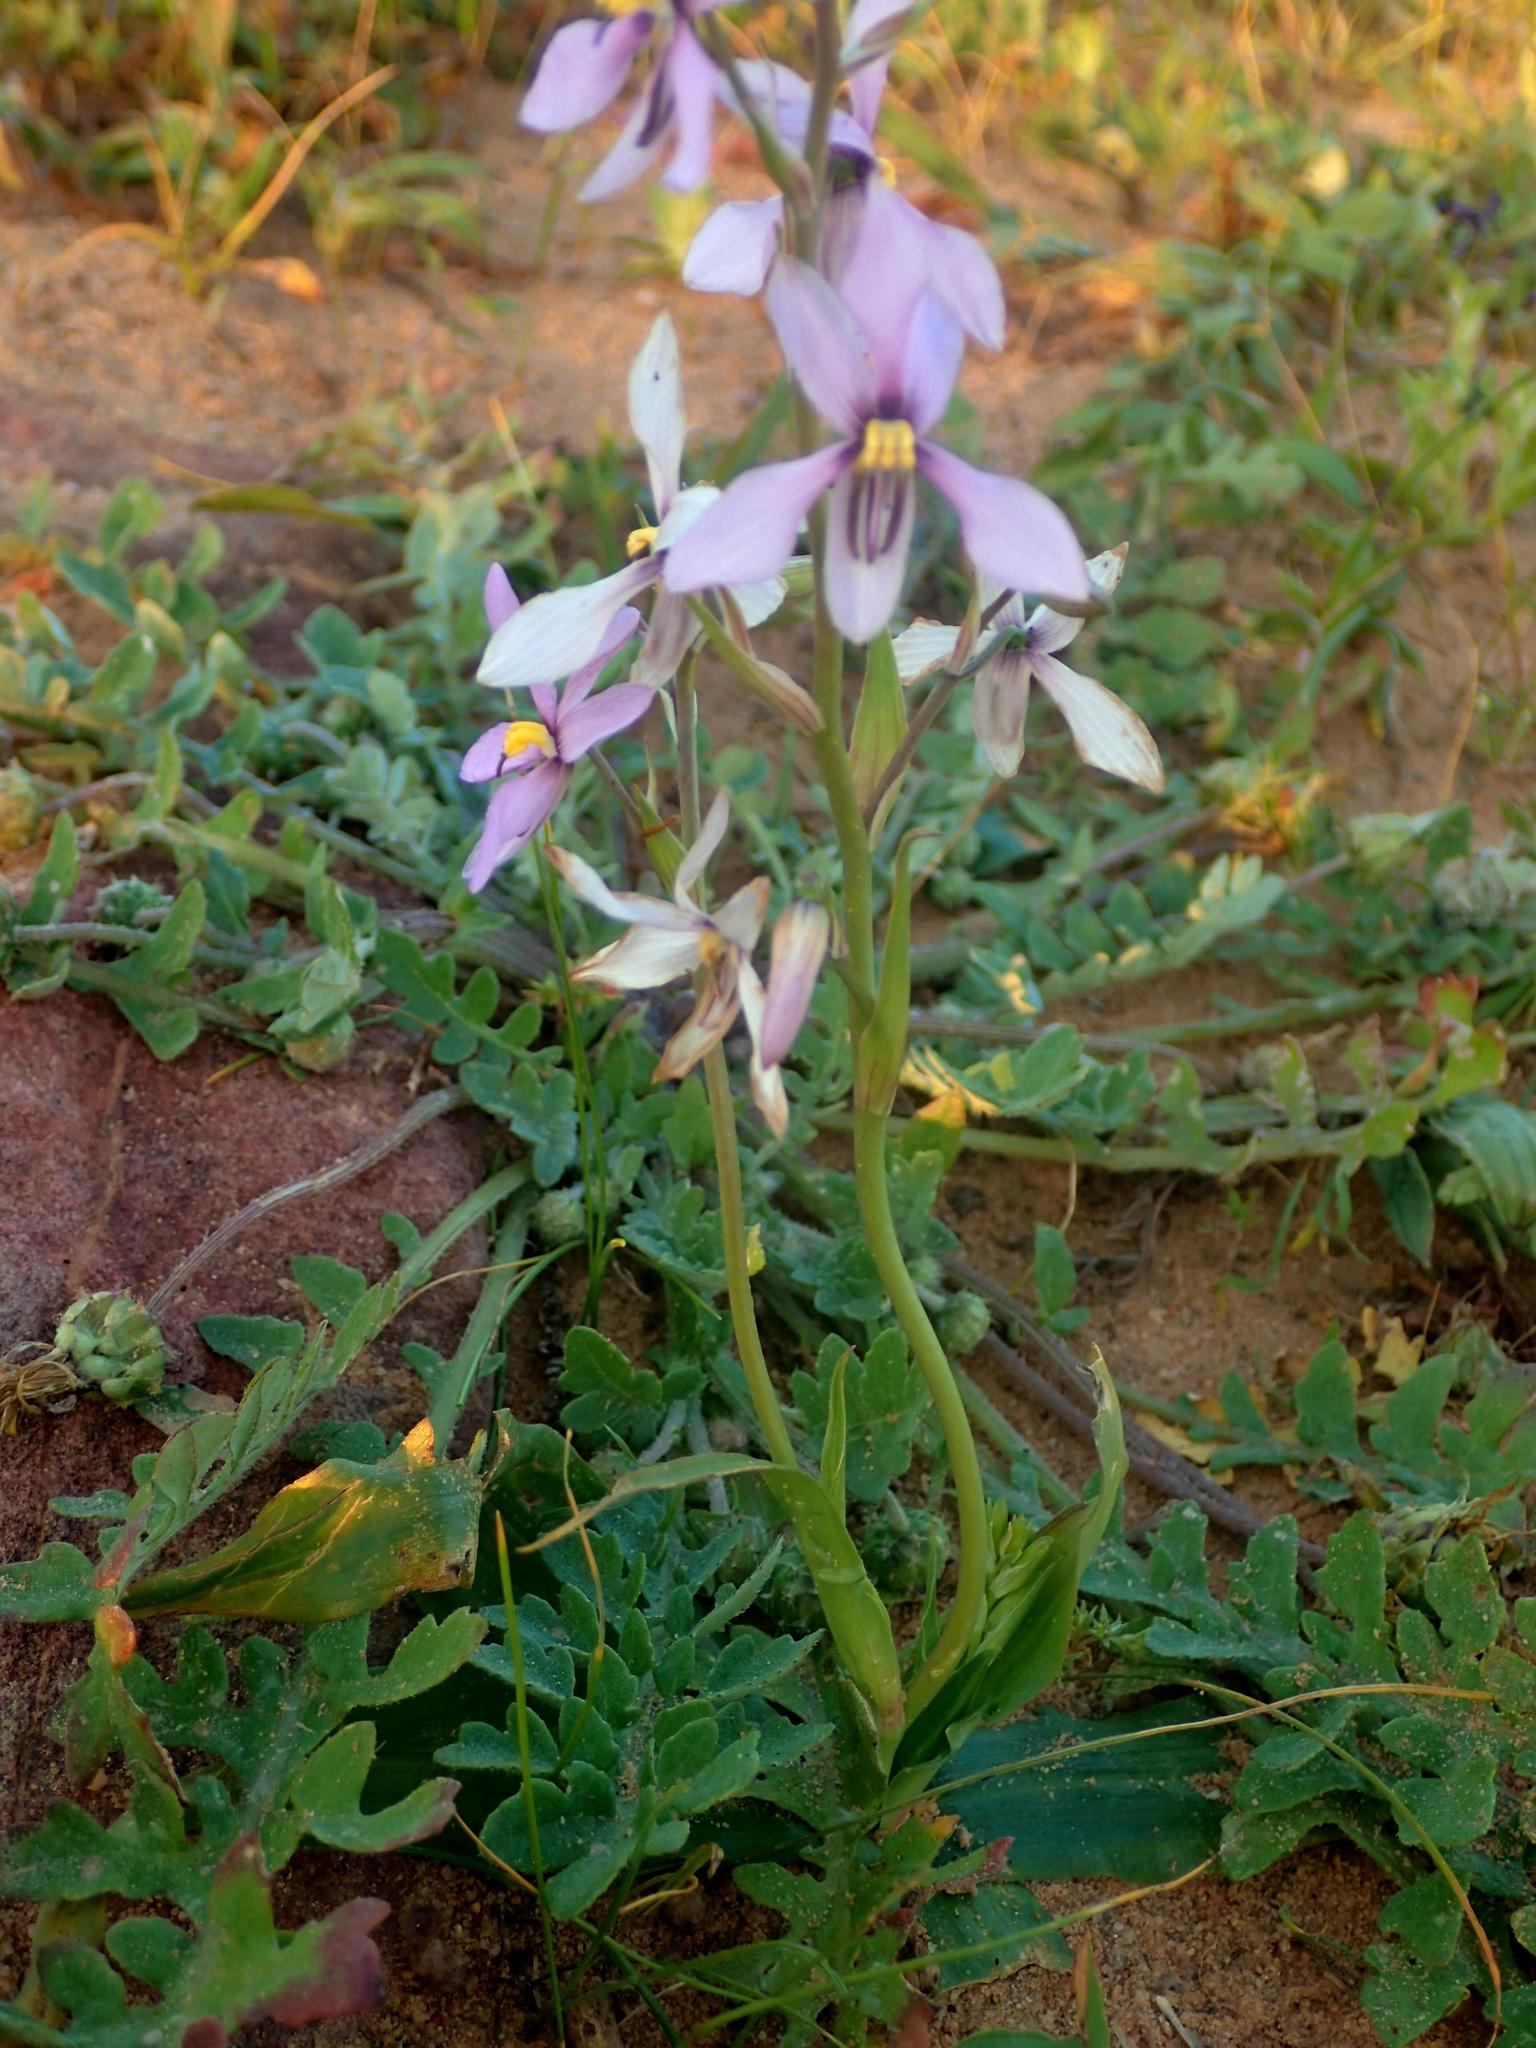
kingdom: Plantae
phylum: Tracheophyta
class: Liliopsida
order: Asparagales
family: Tecophilaeaceae
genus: Cyanella
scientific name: Cyanella orchidiformis
